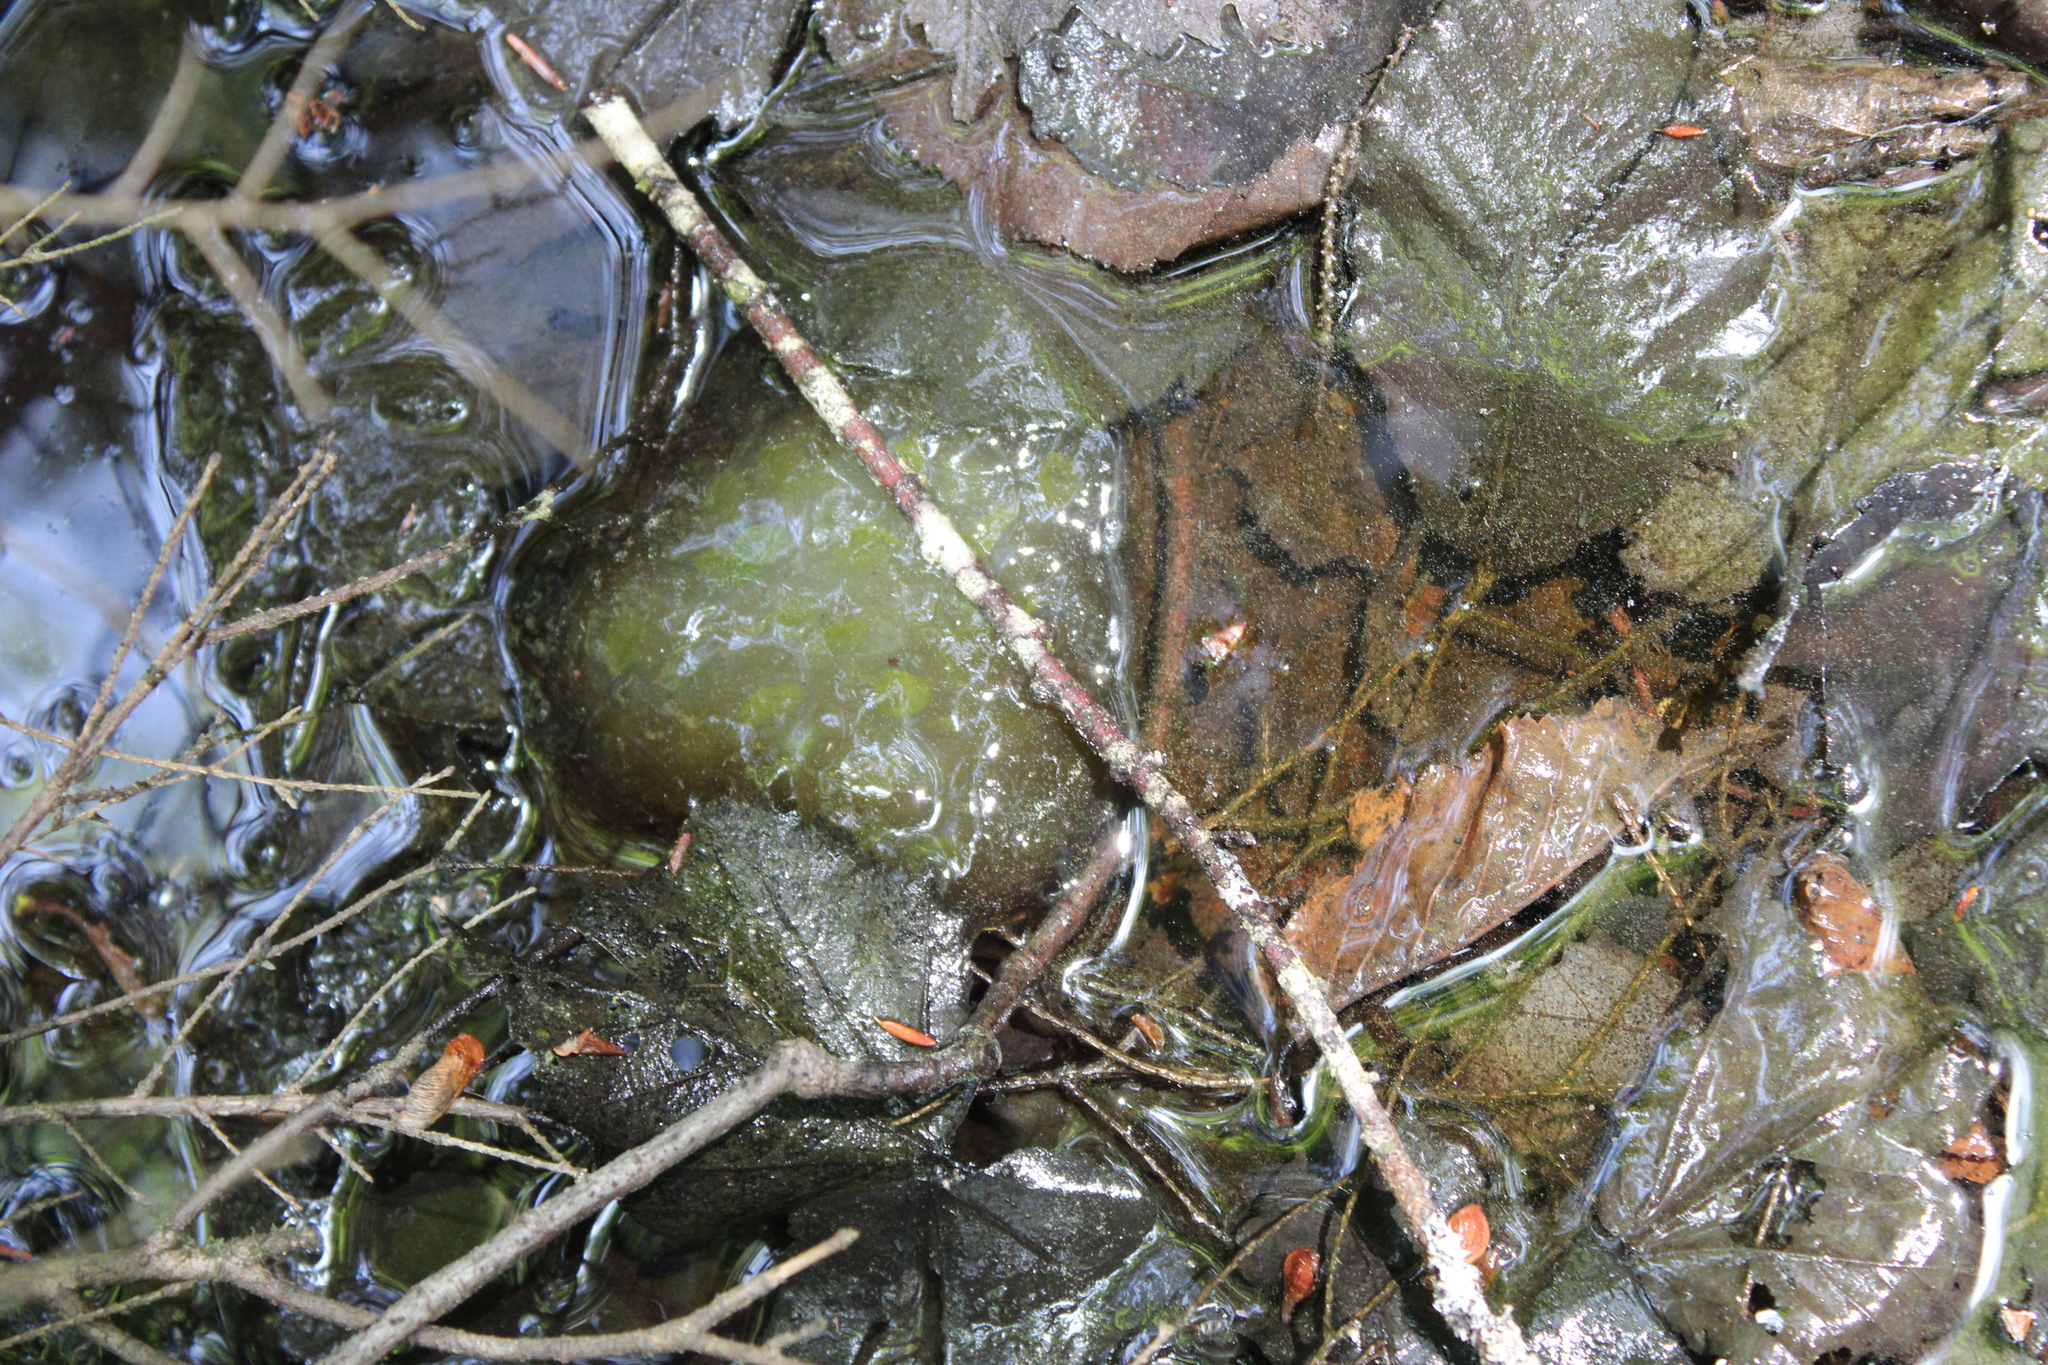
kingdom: Animalia
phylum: Chordata
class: Amphibia
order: Caudata
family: Ambystomatidae
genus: Ambystoma
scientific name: Ambystoma maculatum
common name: Spotted salamander
